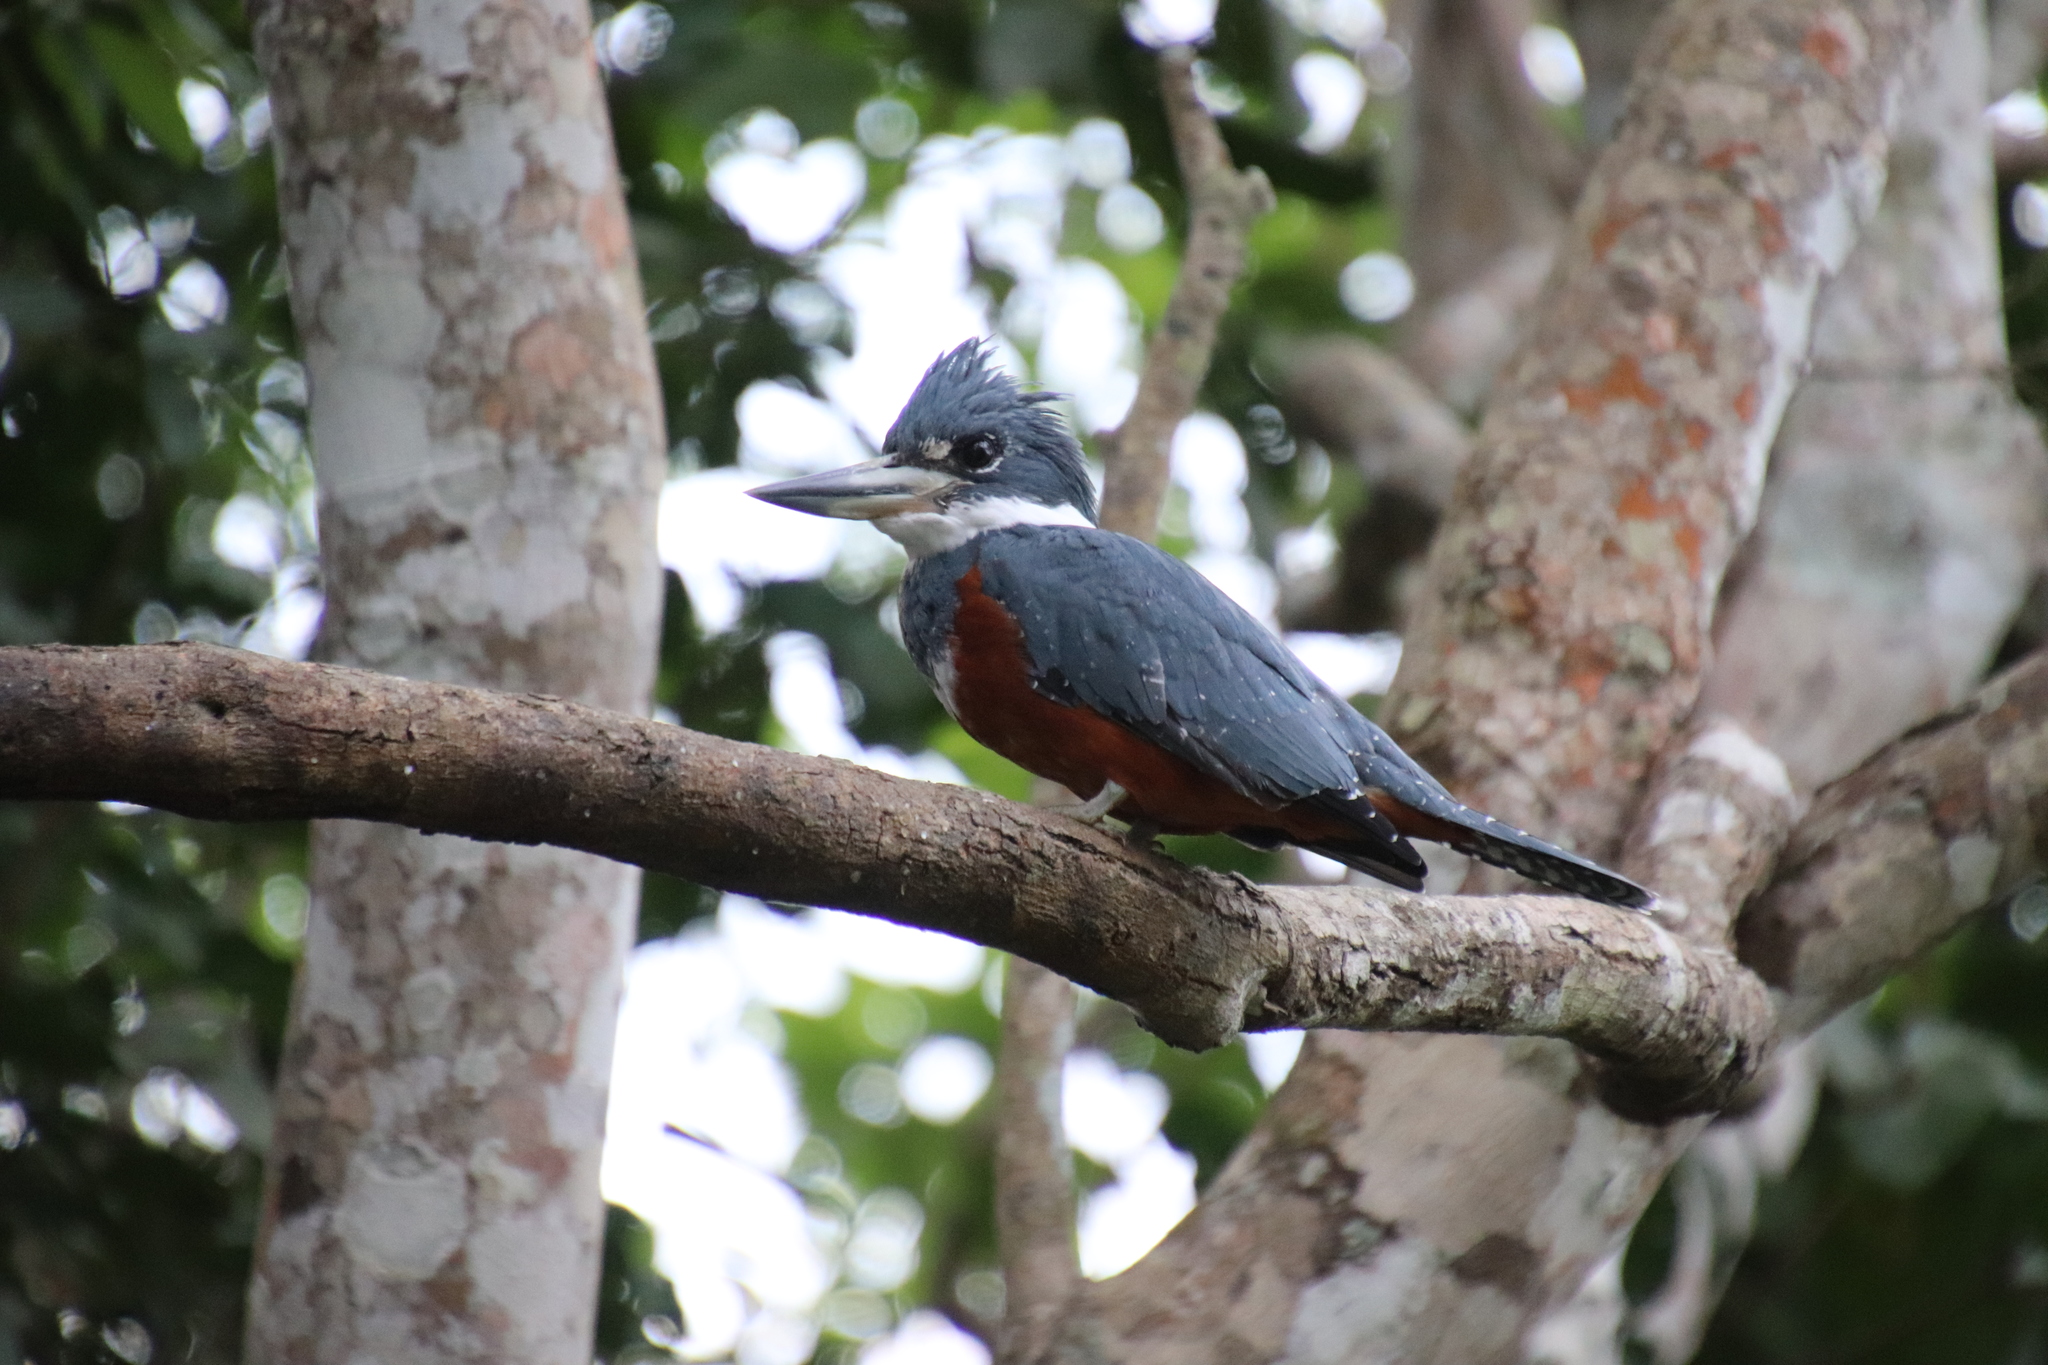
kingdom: Animalia
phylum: Chordata
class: Aves
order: Coraciiformes
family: Alcedinidae
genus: Megaceryle
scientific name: Megaceryle torquata
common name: Ringed kingfisher
